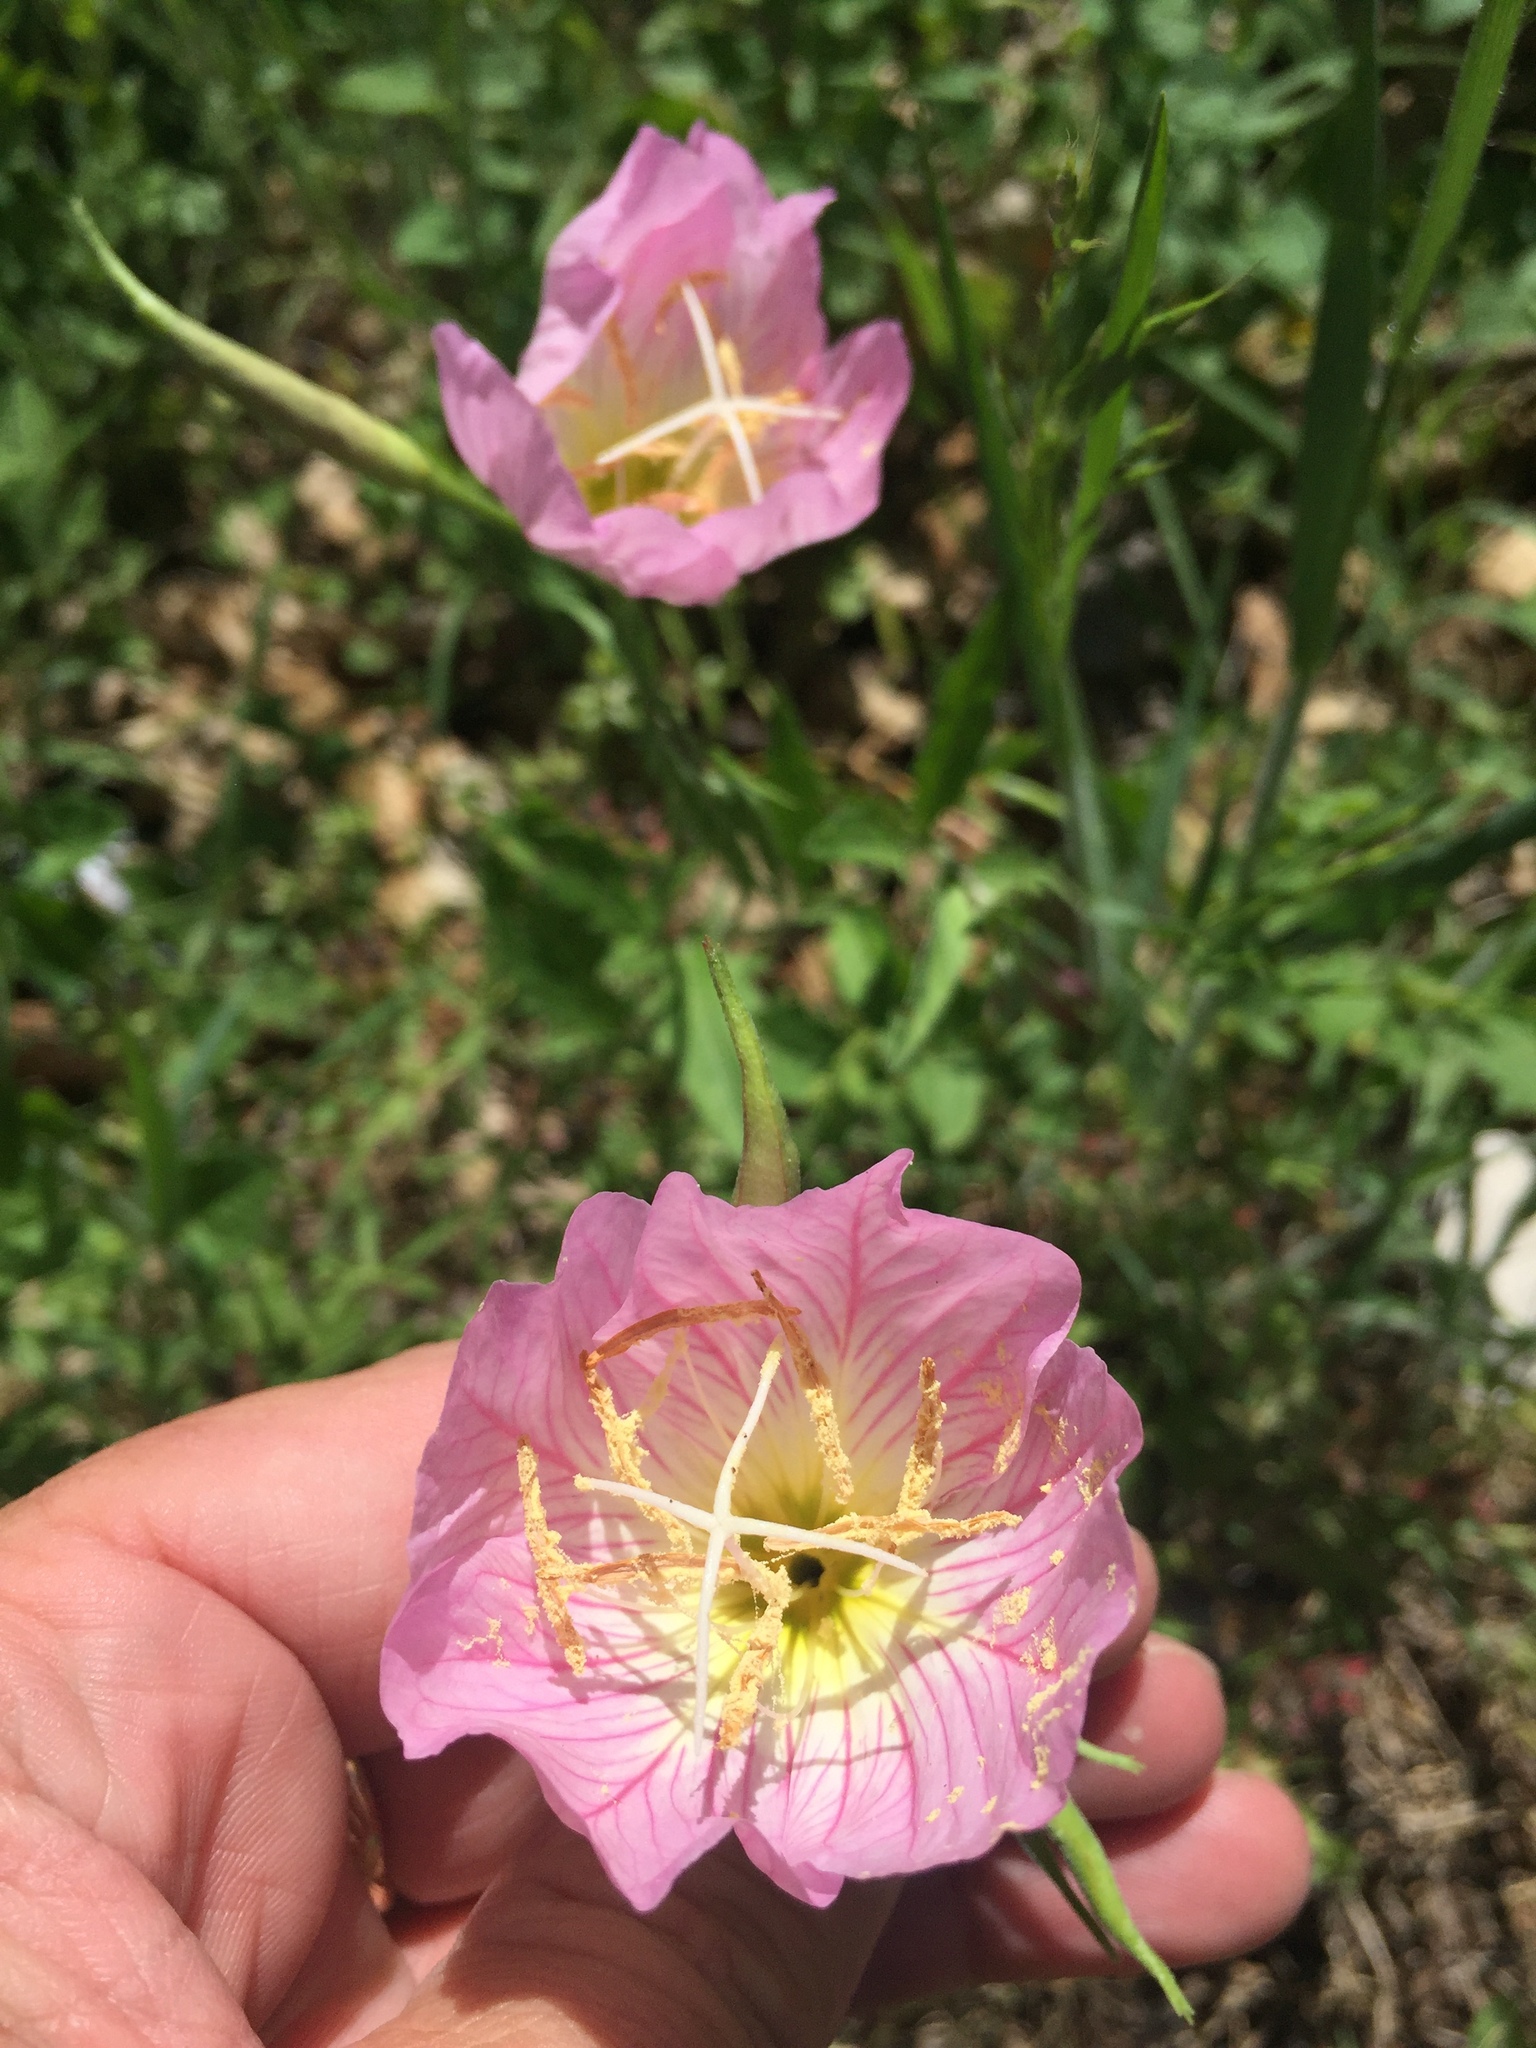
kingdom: Plantae
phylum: Tracheophyta
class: Magnoliopsida
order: Myrtales
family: Onagraceae
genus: Oenothera
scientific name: Oenothera speciosa
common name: White evening-primrose
